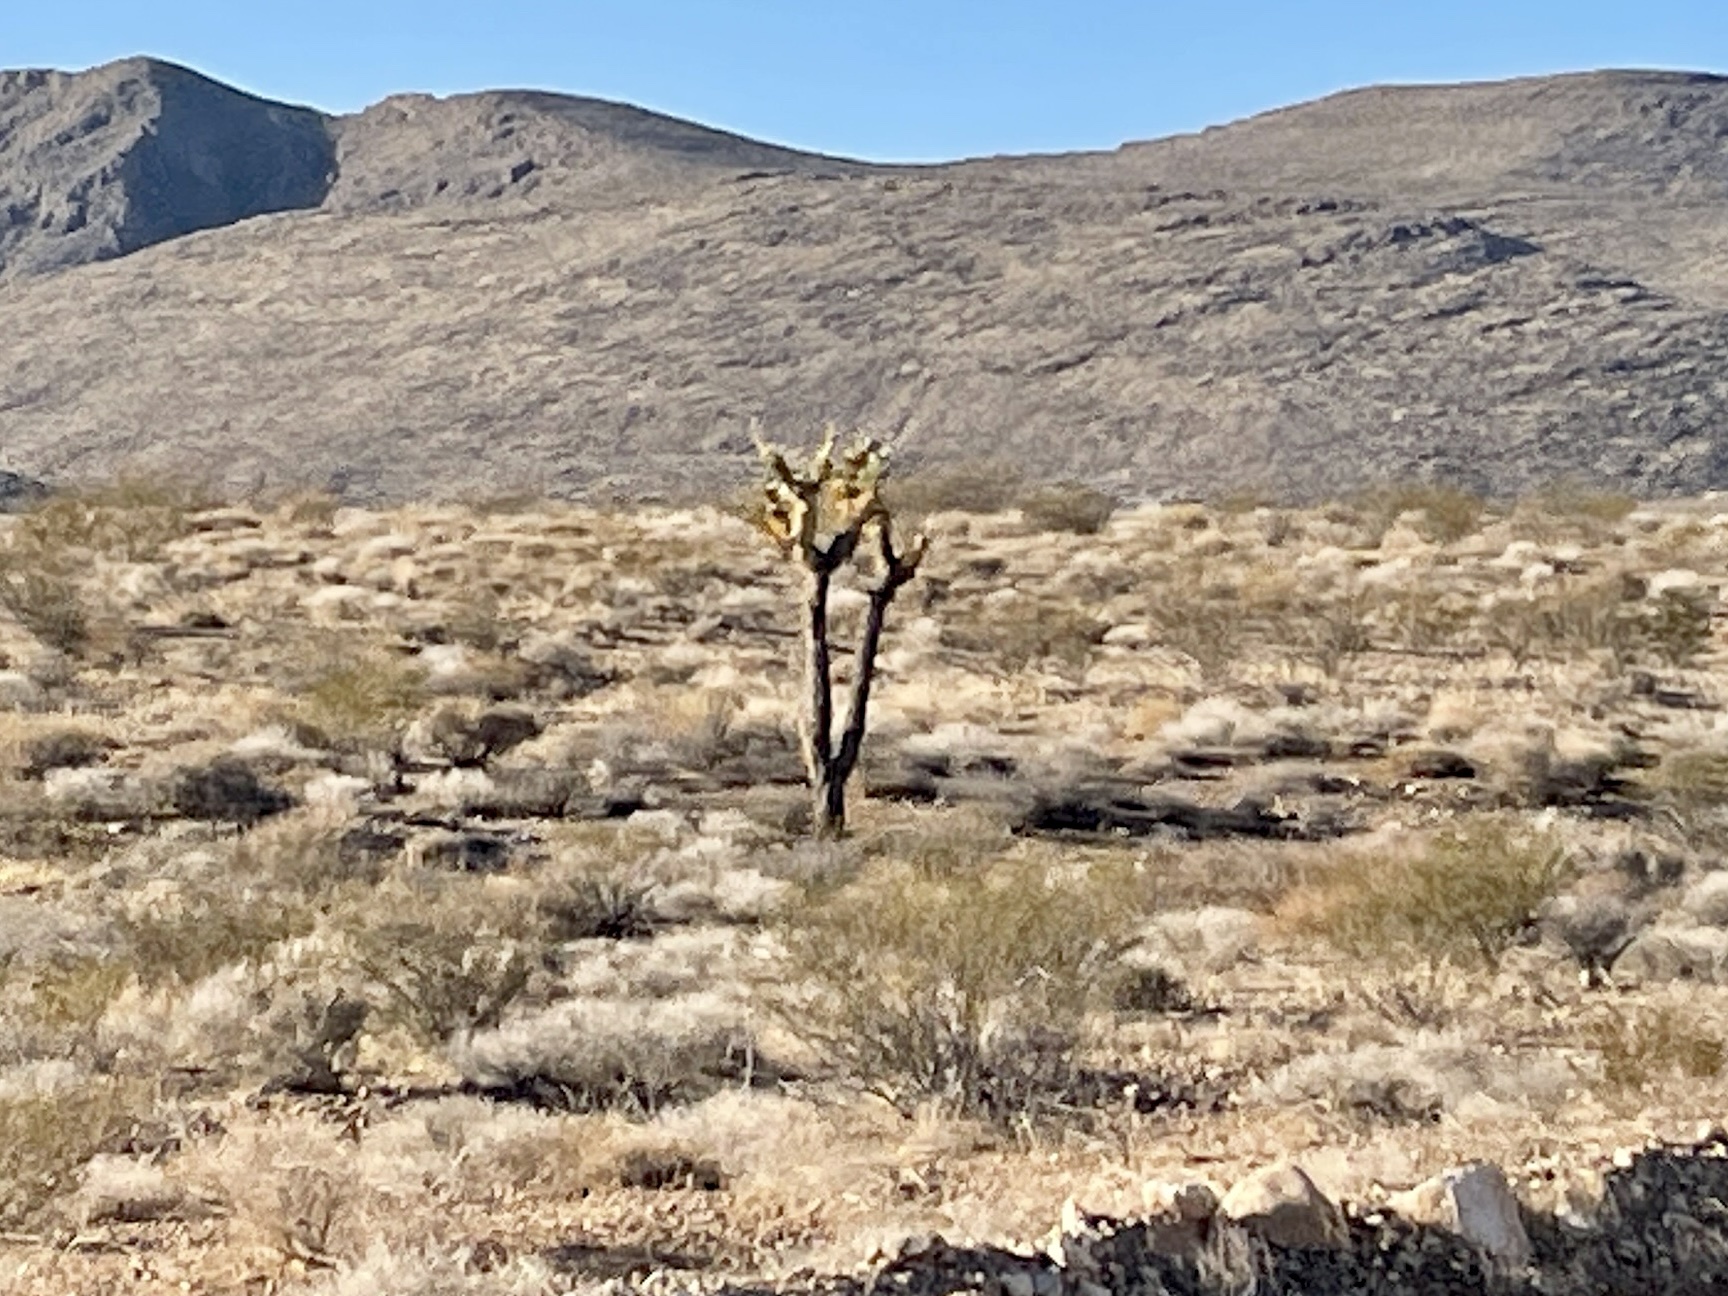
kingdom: Plantae
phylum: Tracheophyta
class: Liliopsida
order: Asparagales
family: Asparagaceae
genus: Yucca
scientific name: Yucca brevifolia
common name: Joshua tree
